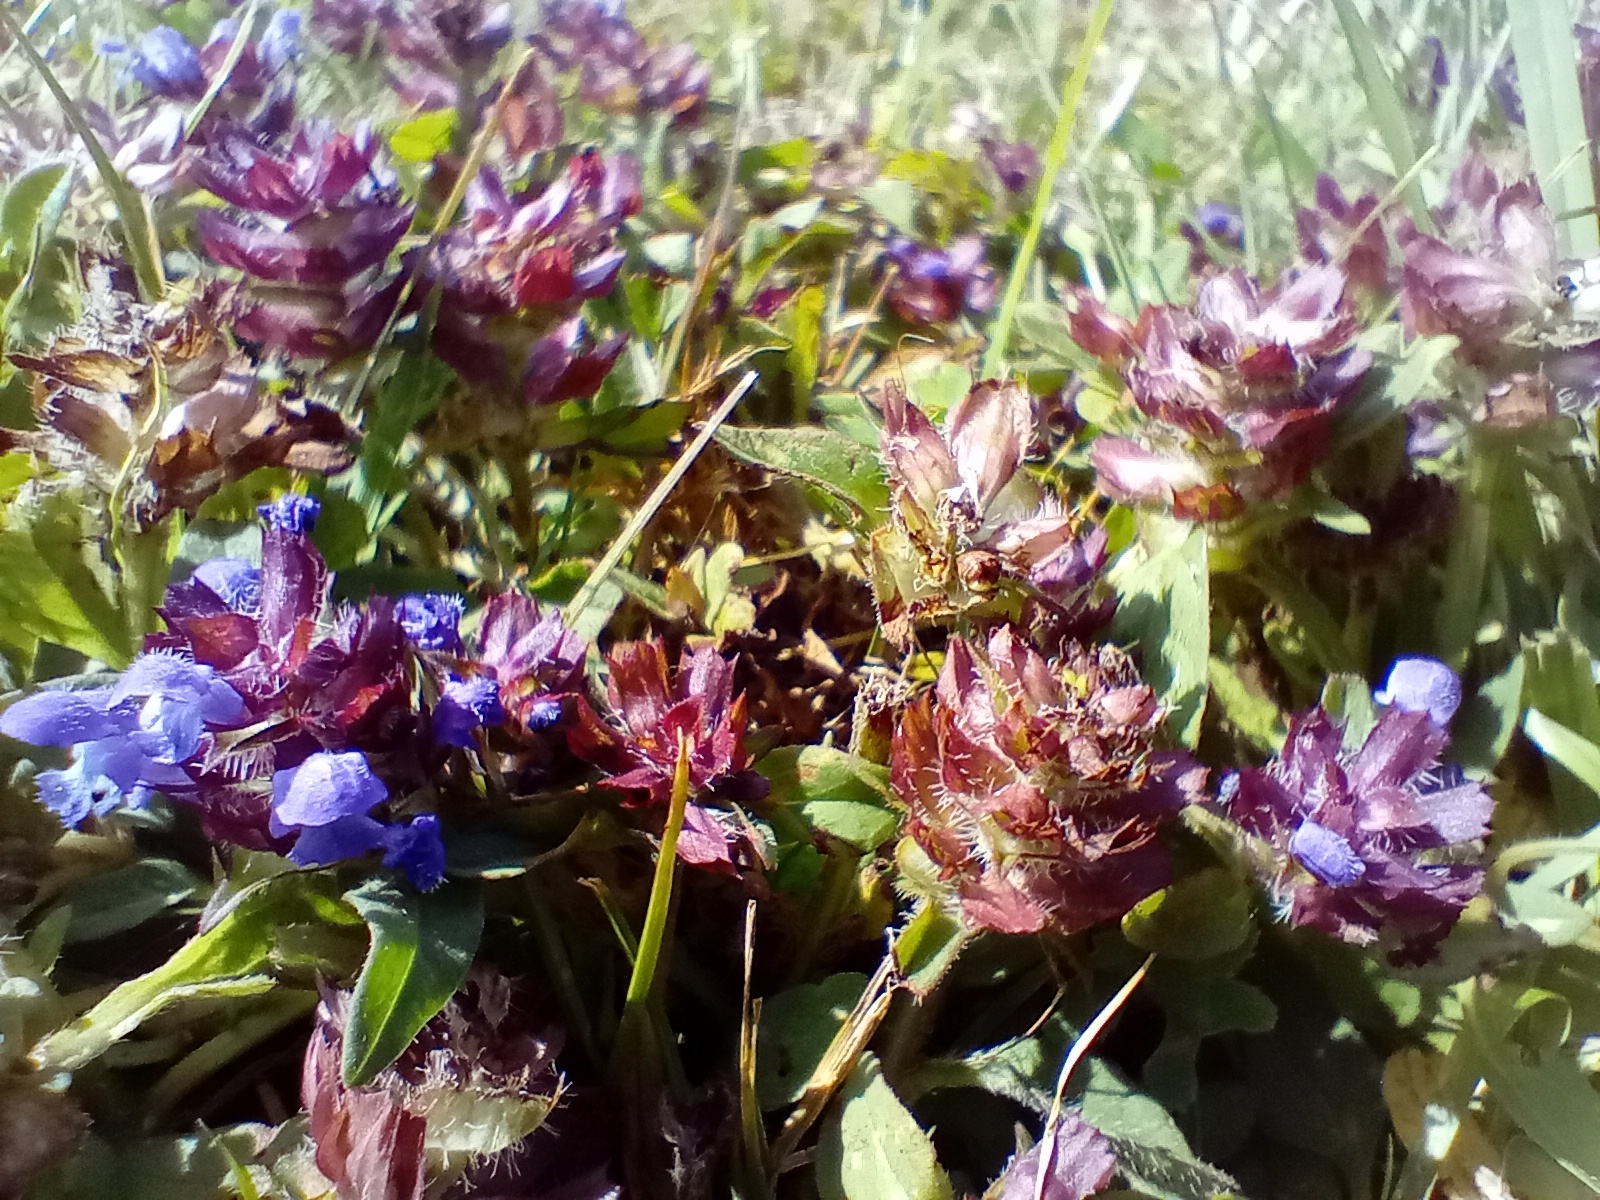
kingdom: Plantae
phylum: Tracheophyta
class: Magnoliopsida
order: Lamiales
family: Lamiaceae
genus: Prunella
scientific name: Prunella vulgaris
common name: Heal-all
